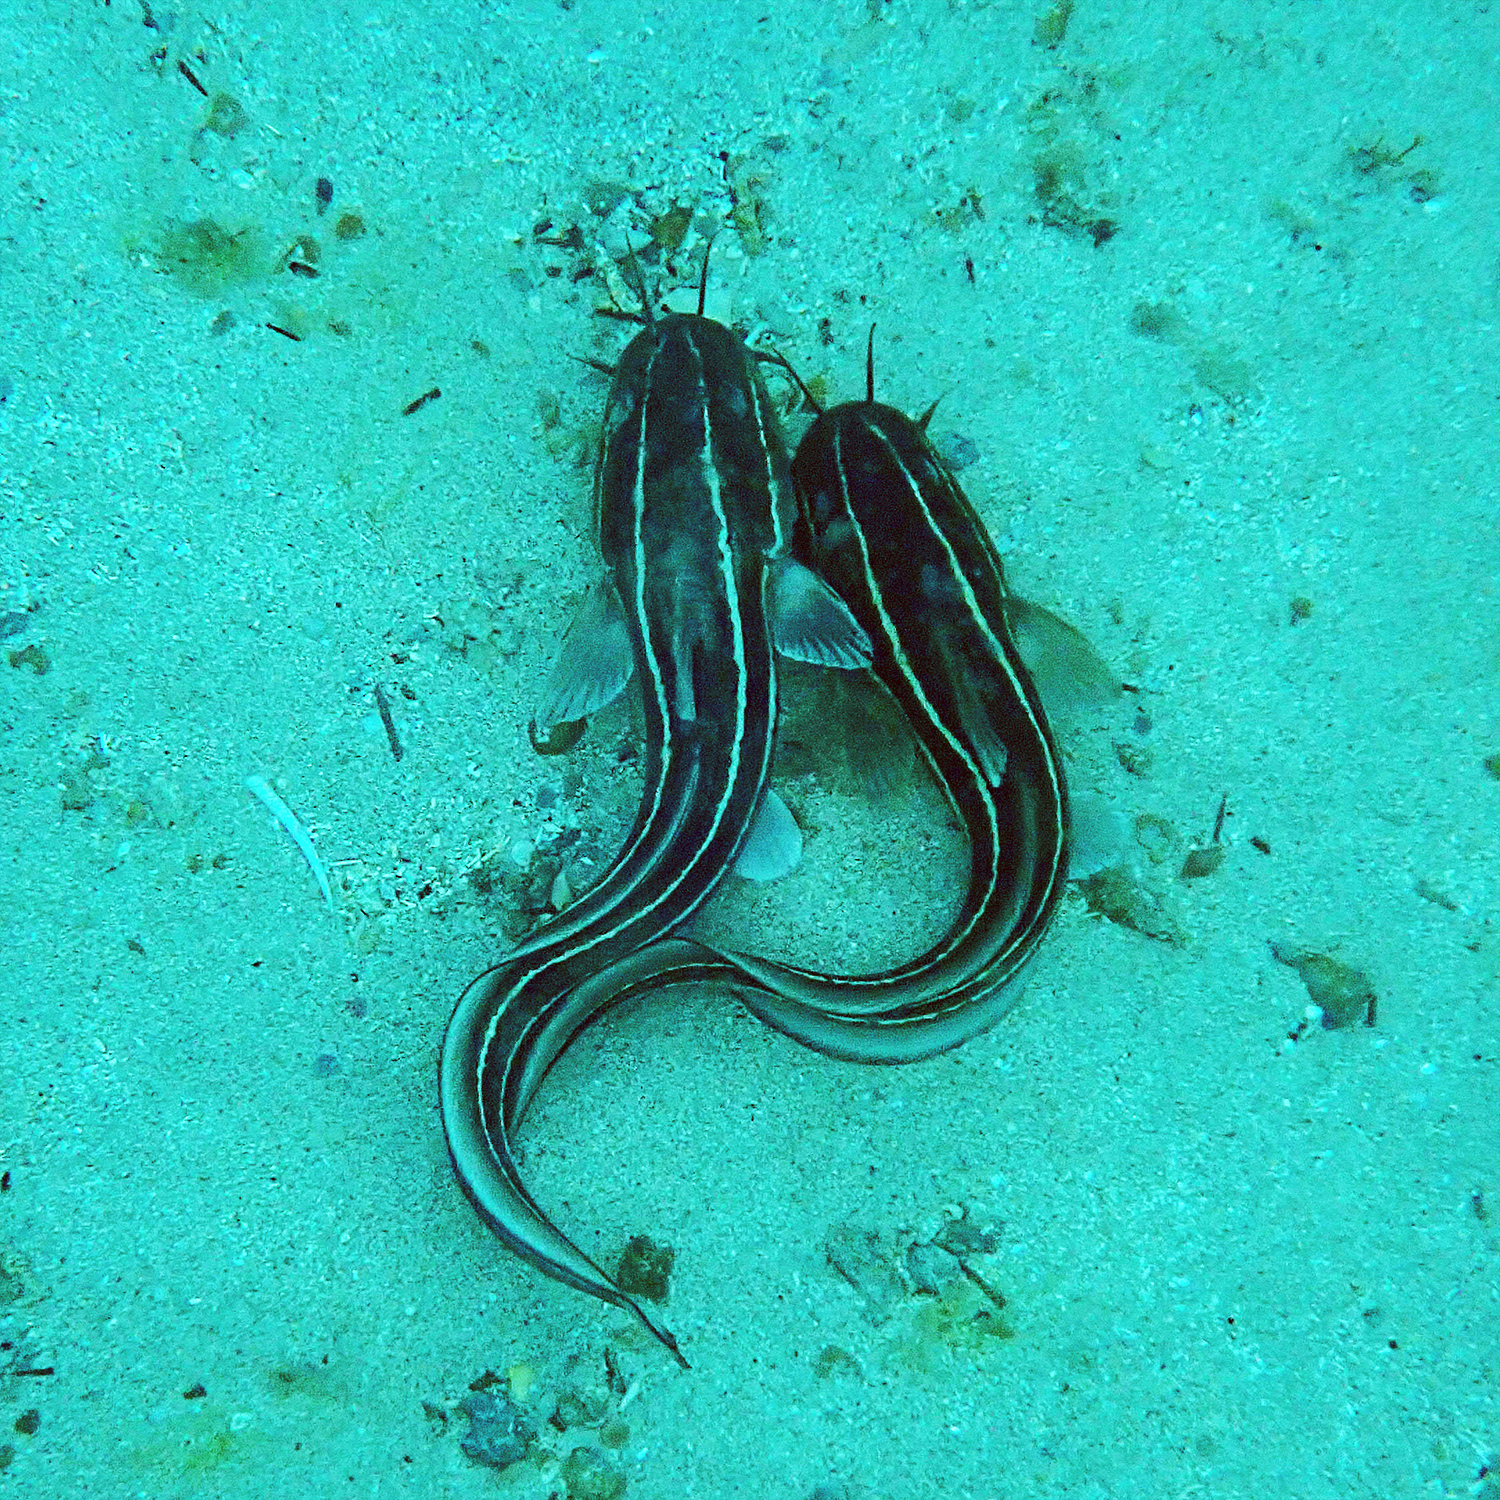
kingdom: Animalia
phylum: Chordata
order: Siluriformes
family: Plotosidae
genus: Plotosus
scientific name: Plotosus lineatus
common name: Striped eel catfish
